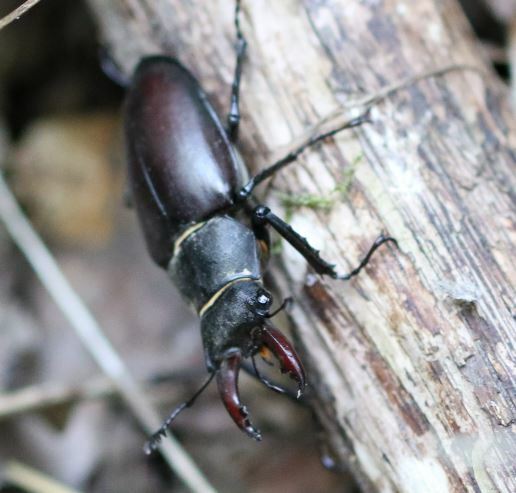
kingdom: Animalia
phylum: Arthropoda
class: Insecta
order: Coleoptera
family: Lucanidae
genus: Lucanus
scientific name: Lucanus cervus
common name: Stag beetle
